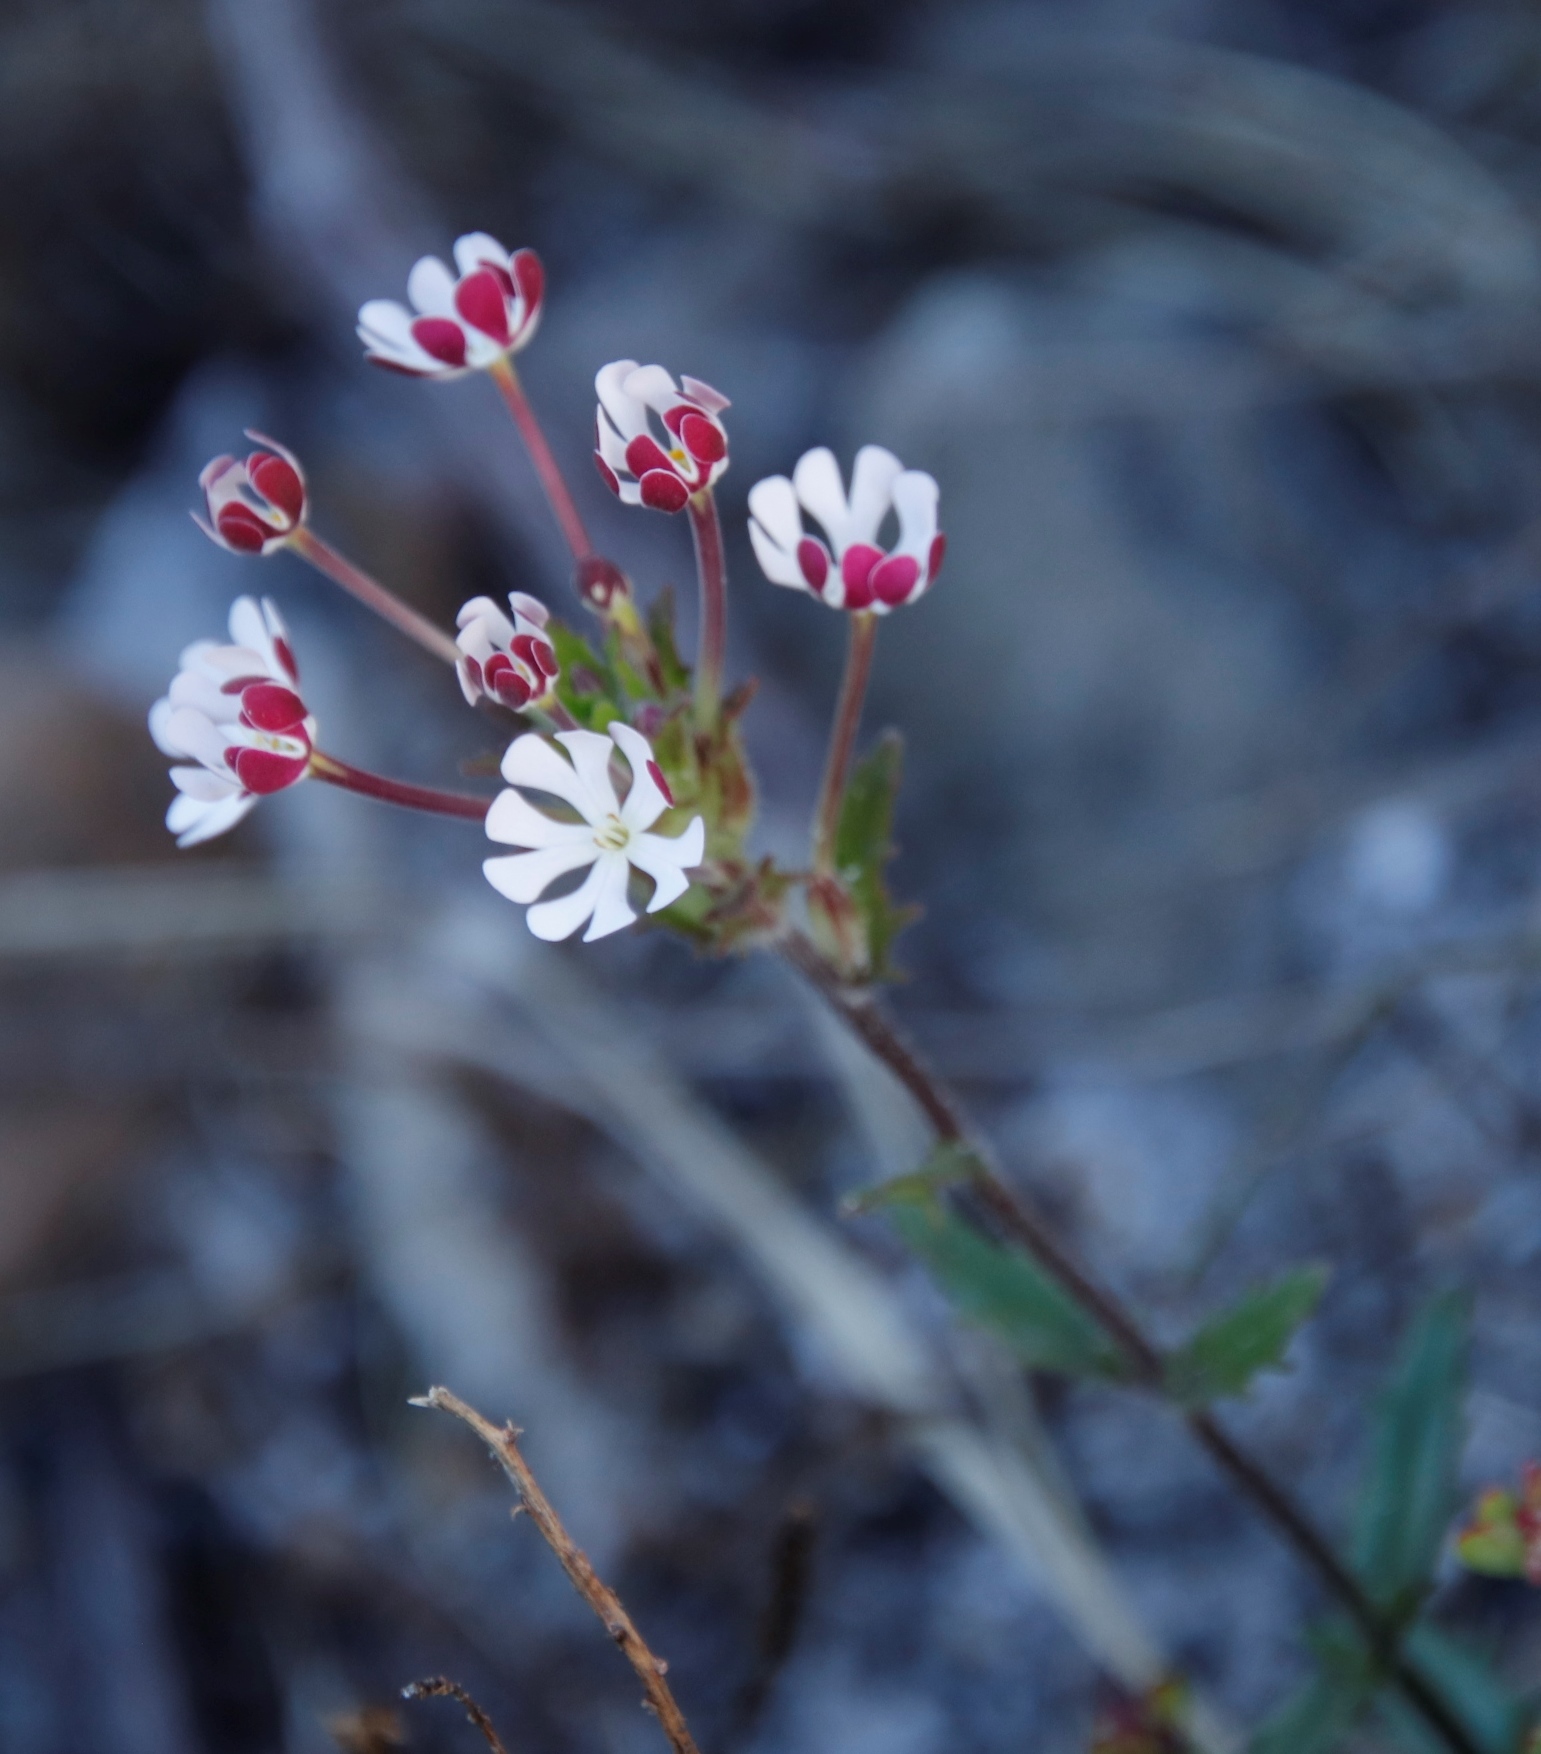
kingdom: Plantae
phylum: Tracheophyta
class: Magnoliopsida
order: Lamiales
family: Scrophulariaceae
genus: Zaluzianskya
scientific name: Zaluzianskya capensis
